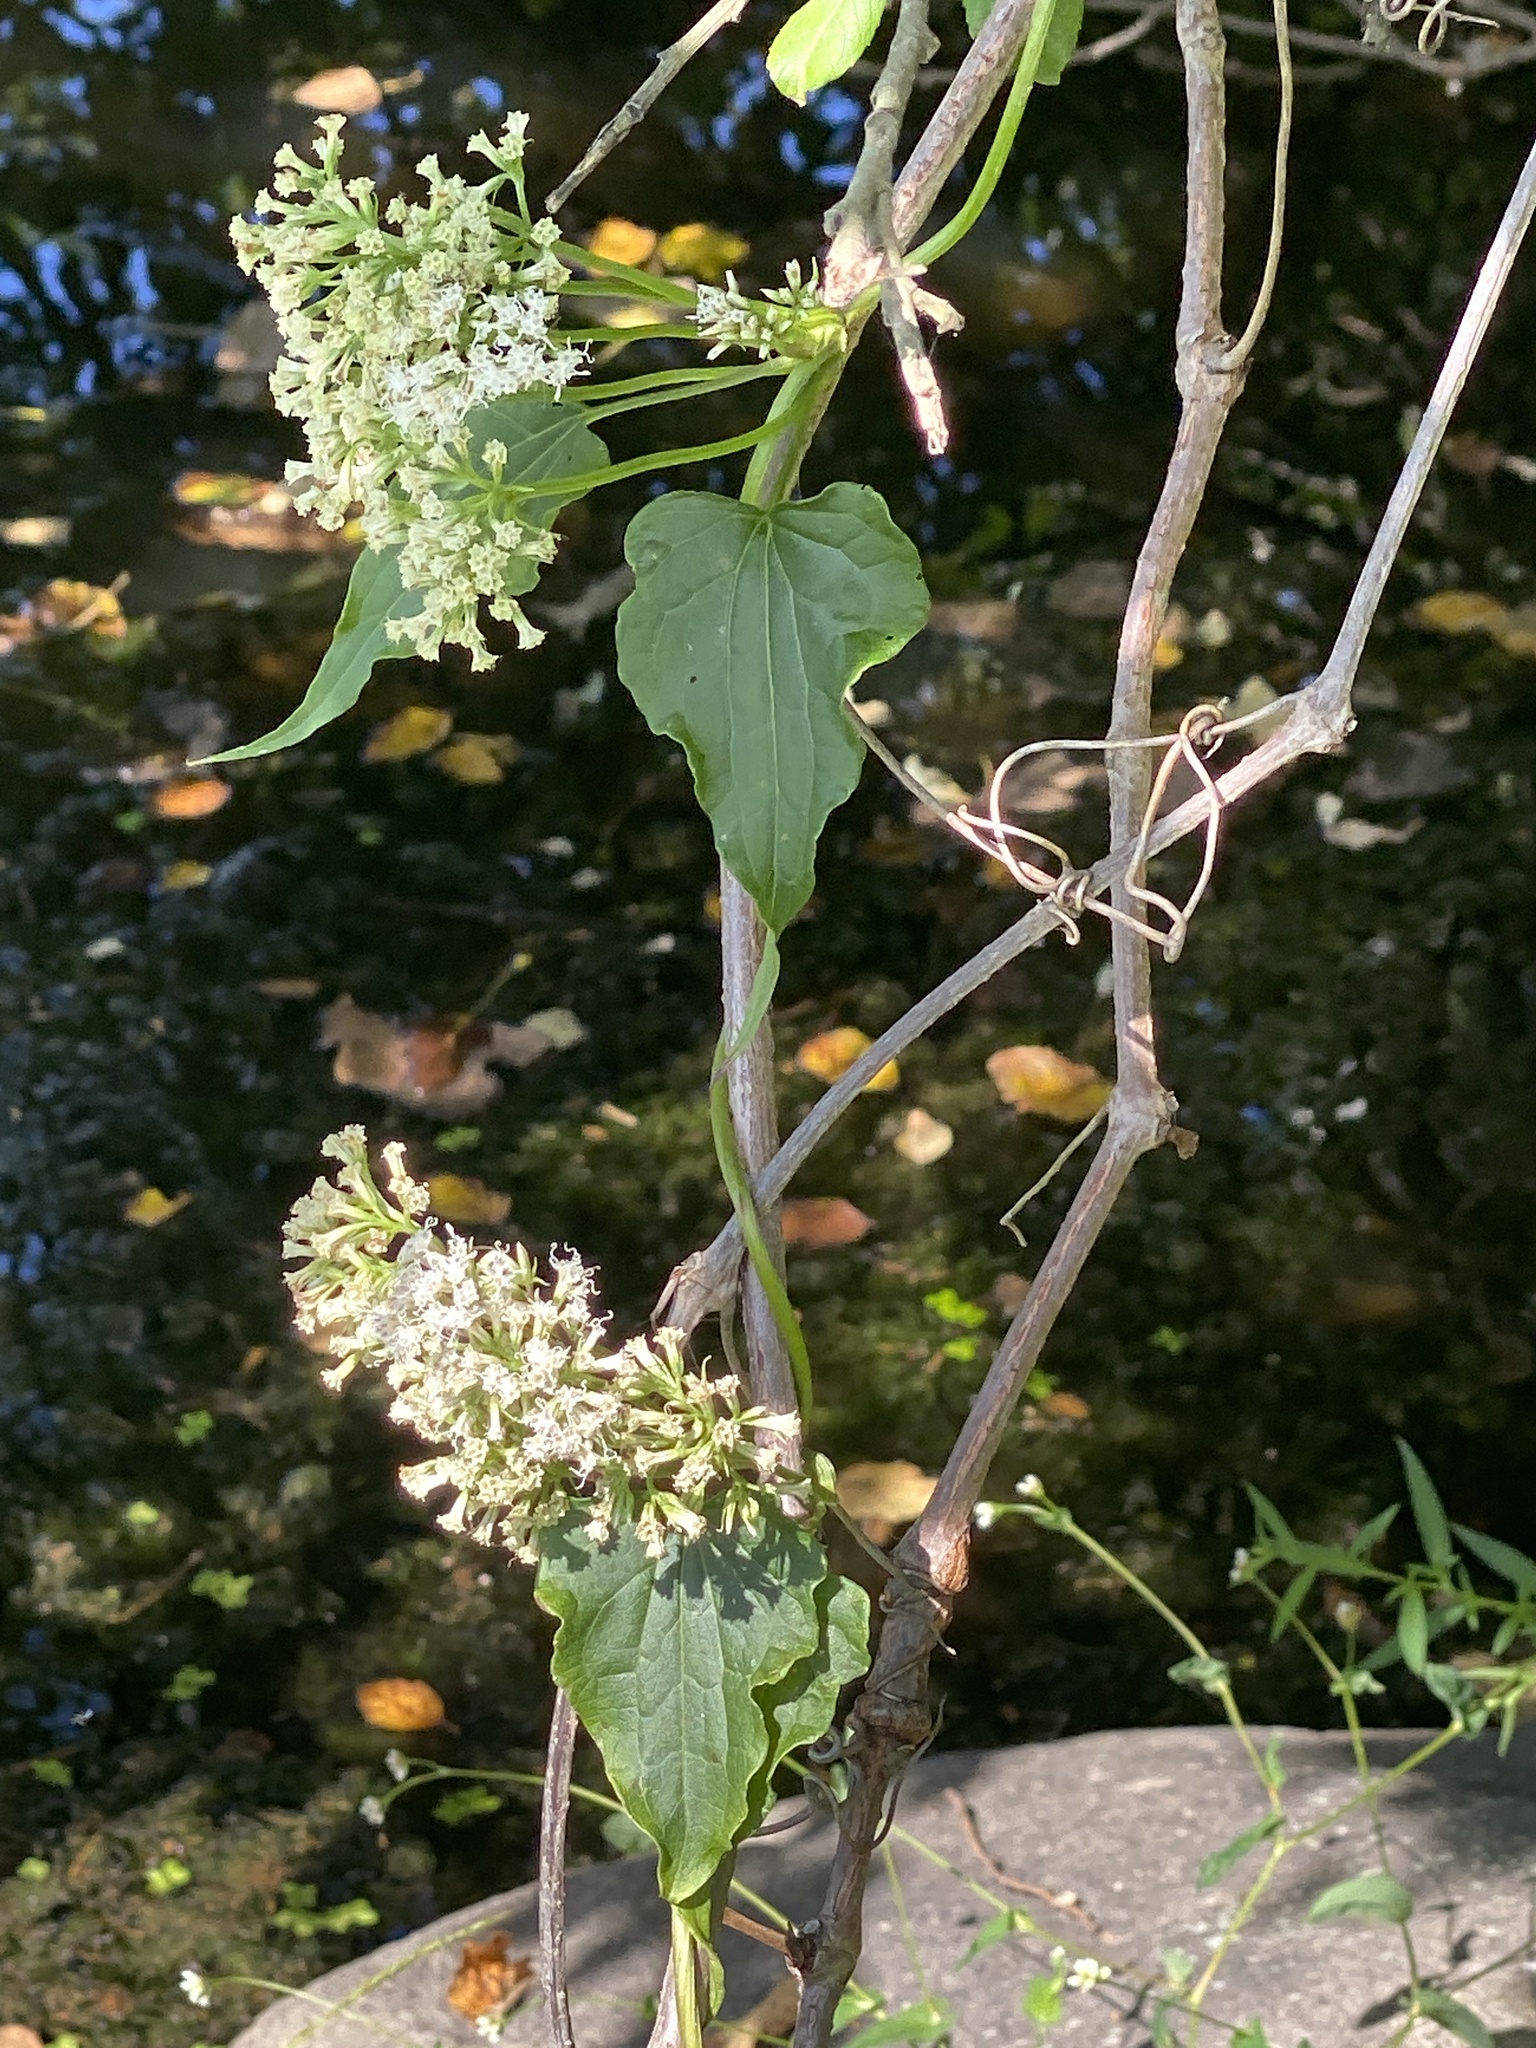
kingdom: Plantae
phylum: Tracheophyta
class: Magnoliopsida
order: Asterales
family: Asteraceae
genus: Mikania
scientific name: Mikania scandens
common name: Climbing hempvine
